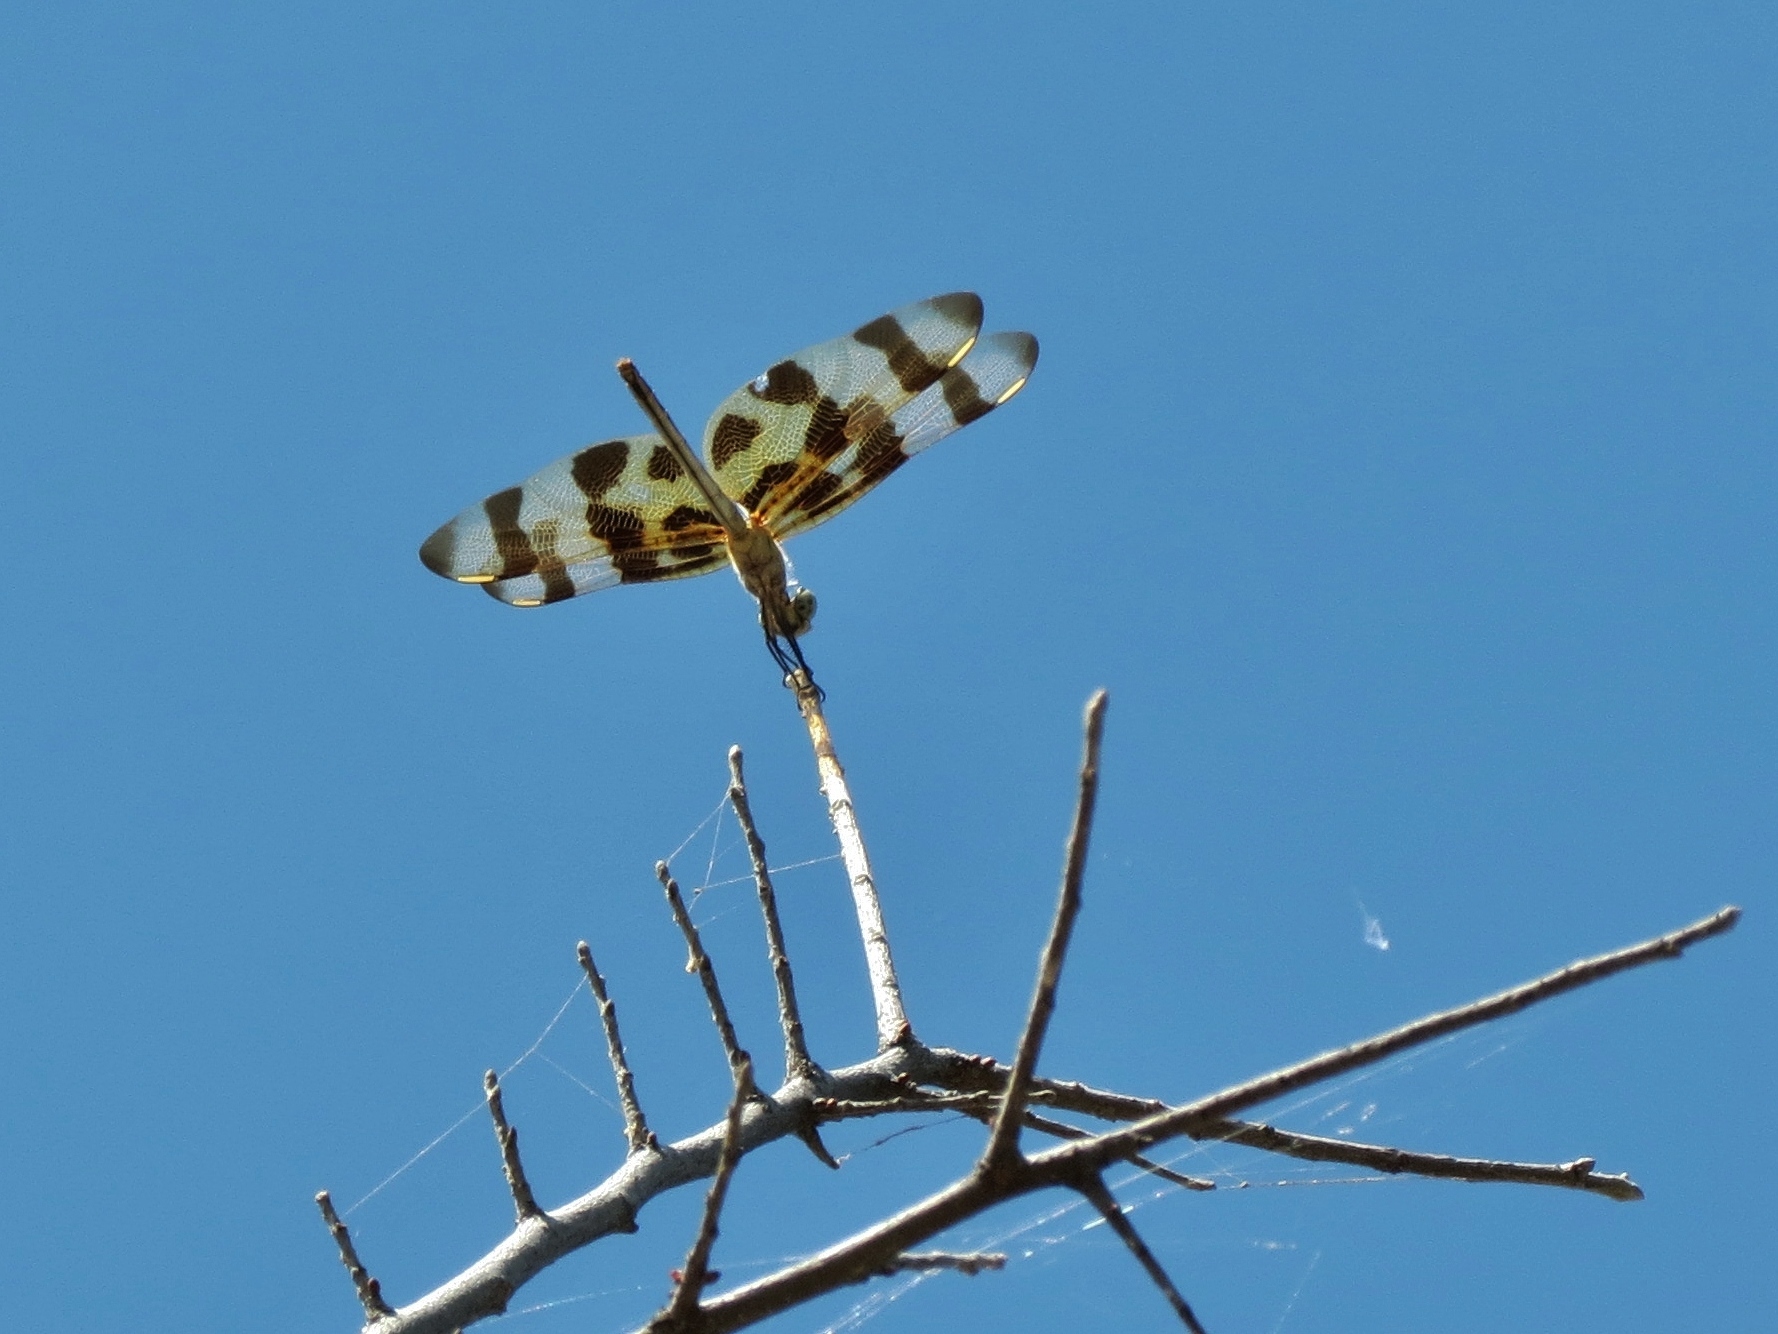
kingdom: Animalia
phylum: Arthropoda
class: Insecta
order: Odonata
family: Libellulidae
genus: Celithemis
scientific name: Celithemis eponina
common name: Halloween pennant
